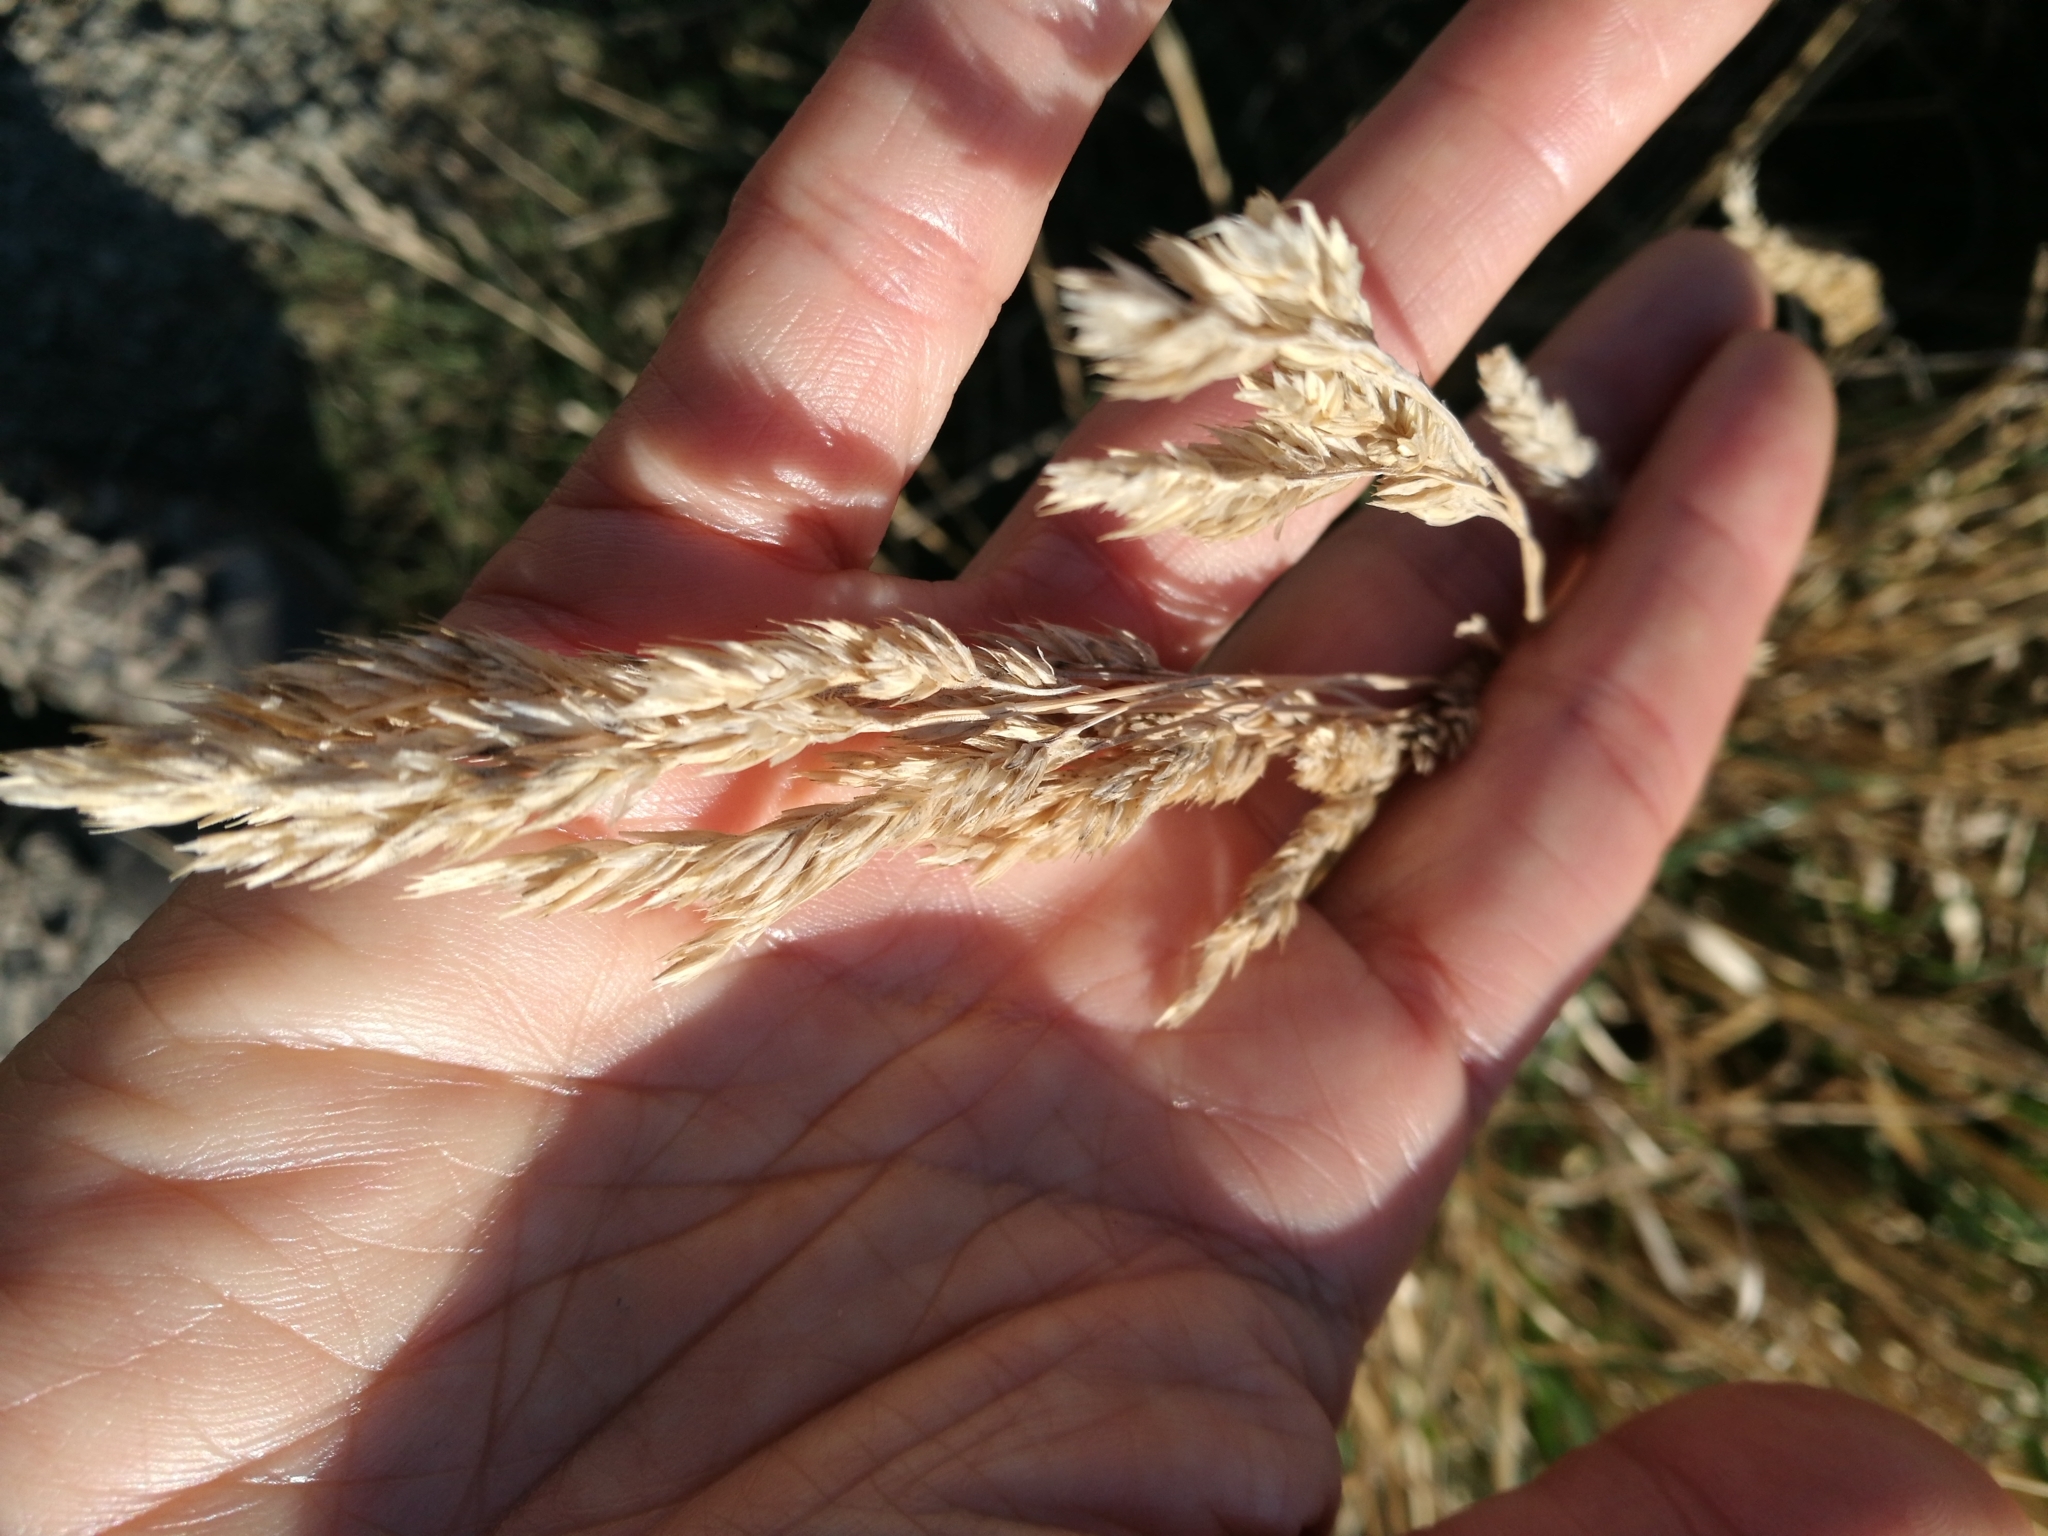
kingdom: Plantae
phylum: Tracheophyta
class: Liliopsida
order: Poales
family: Poaceae
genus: Dactylis
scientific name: Dactylis glomerata
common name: Orchardgrass
